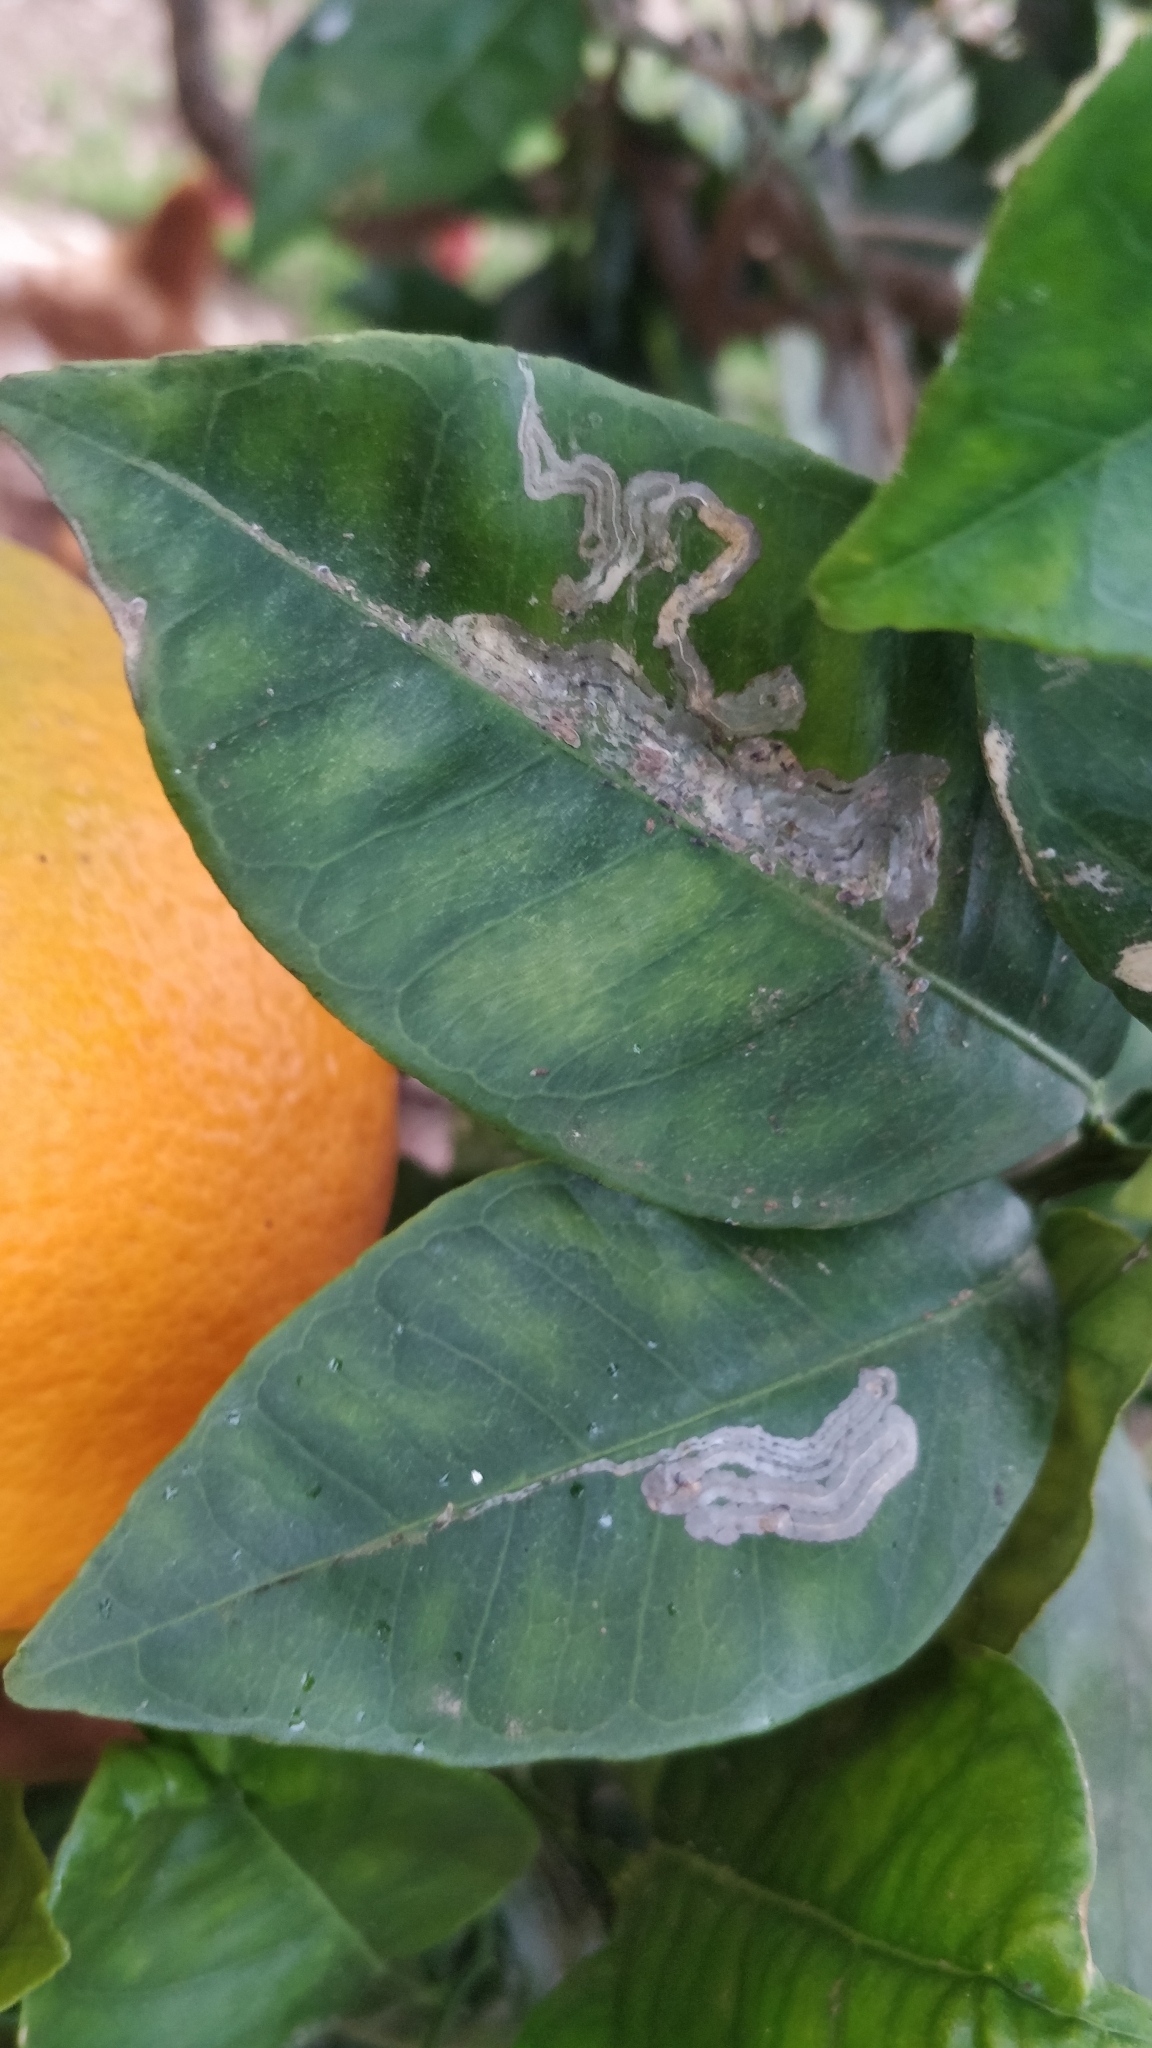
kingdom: Animalia
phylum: Arthropoda
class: Insecta
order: Lepidoptera
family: Gracillariidae
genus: Phyllocnistis
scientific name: Phyllocnistis citrella
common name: Citrus leafminer
